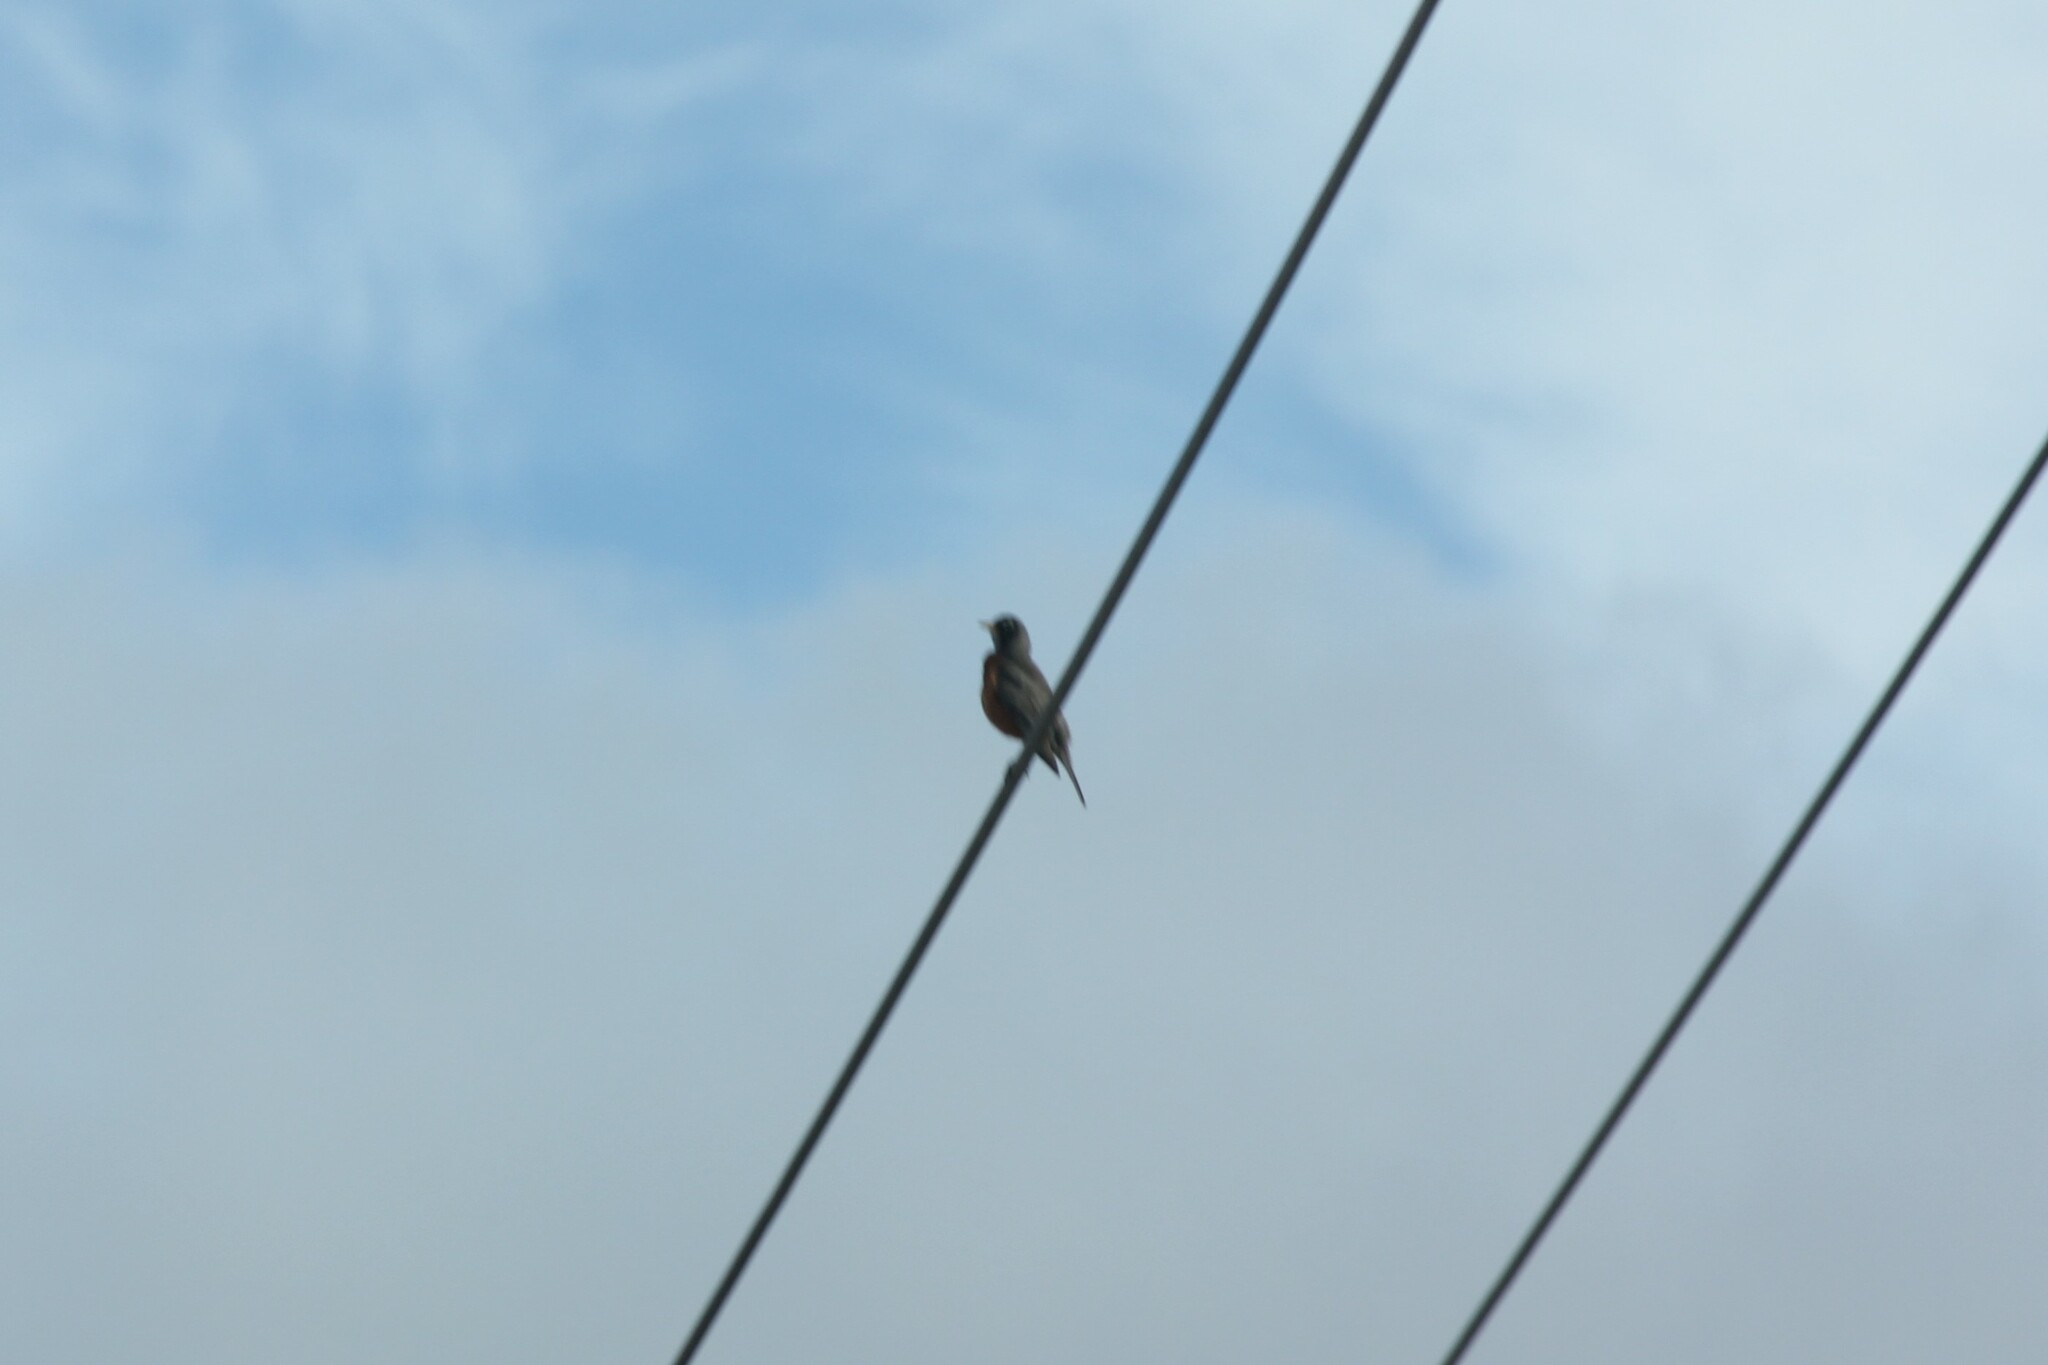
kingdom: Animalia
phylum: Chordata
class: Aves
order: Passeriformes
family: Turdidae
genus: Turdus
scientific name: Turdus migratorius
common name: American robin
